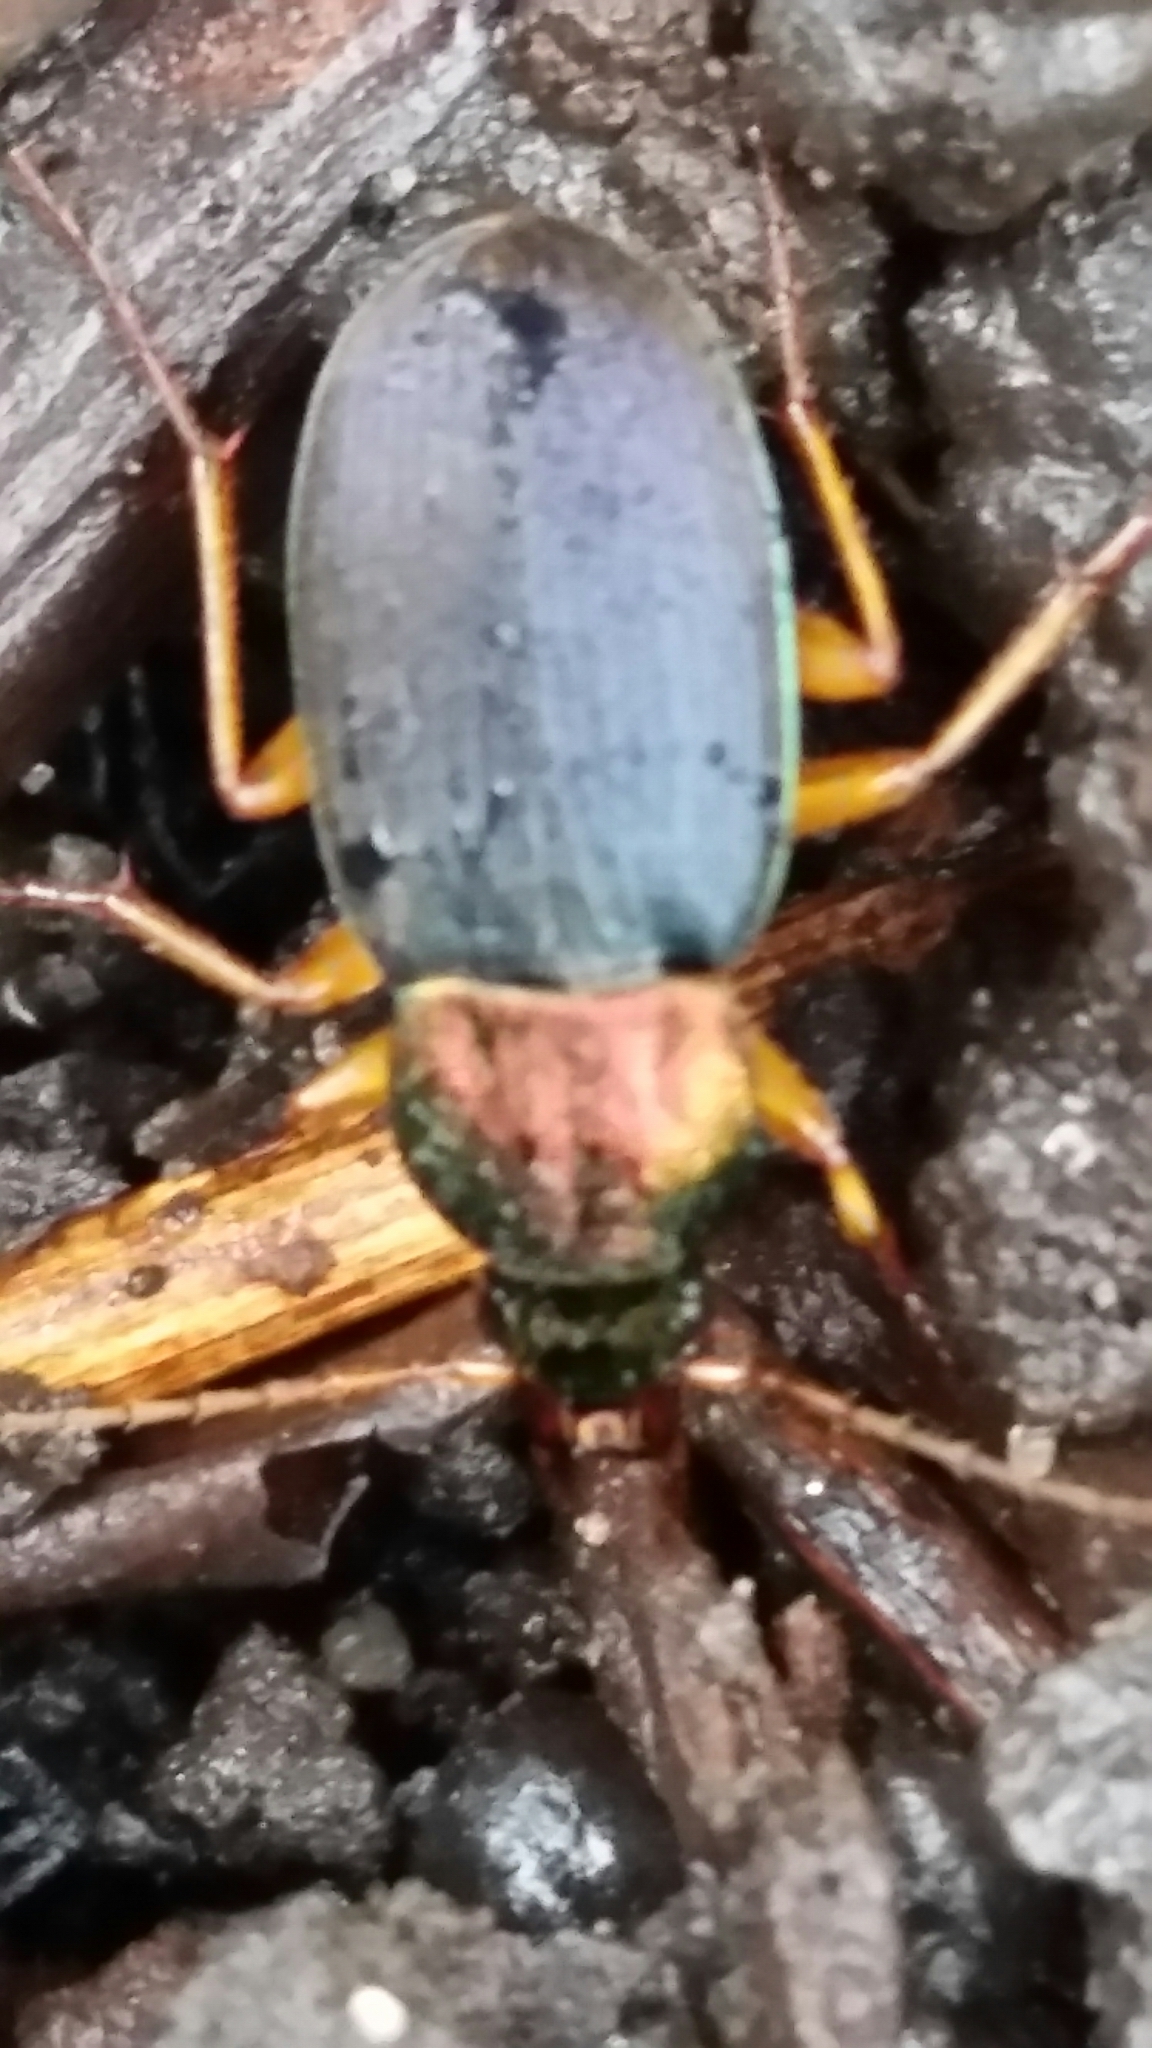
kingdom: Animalia
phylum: Arthropoda
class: Insecta
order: Coleoptera
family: Carabidae
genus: Chlaenius
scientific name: Chlaenius
